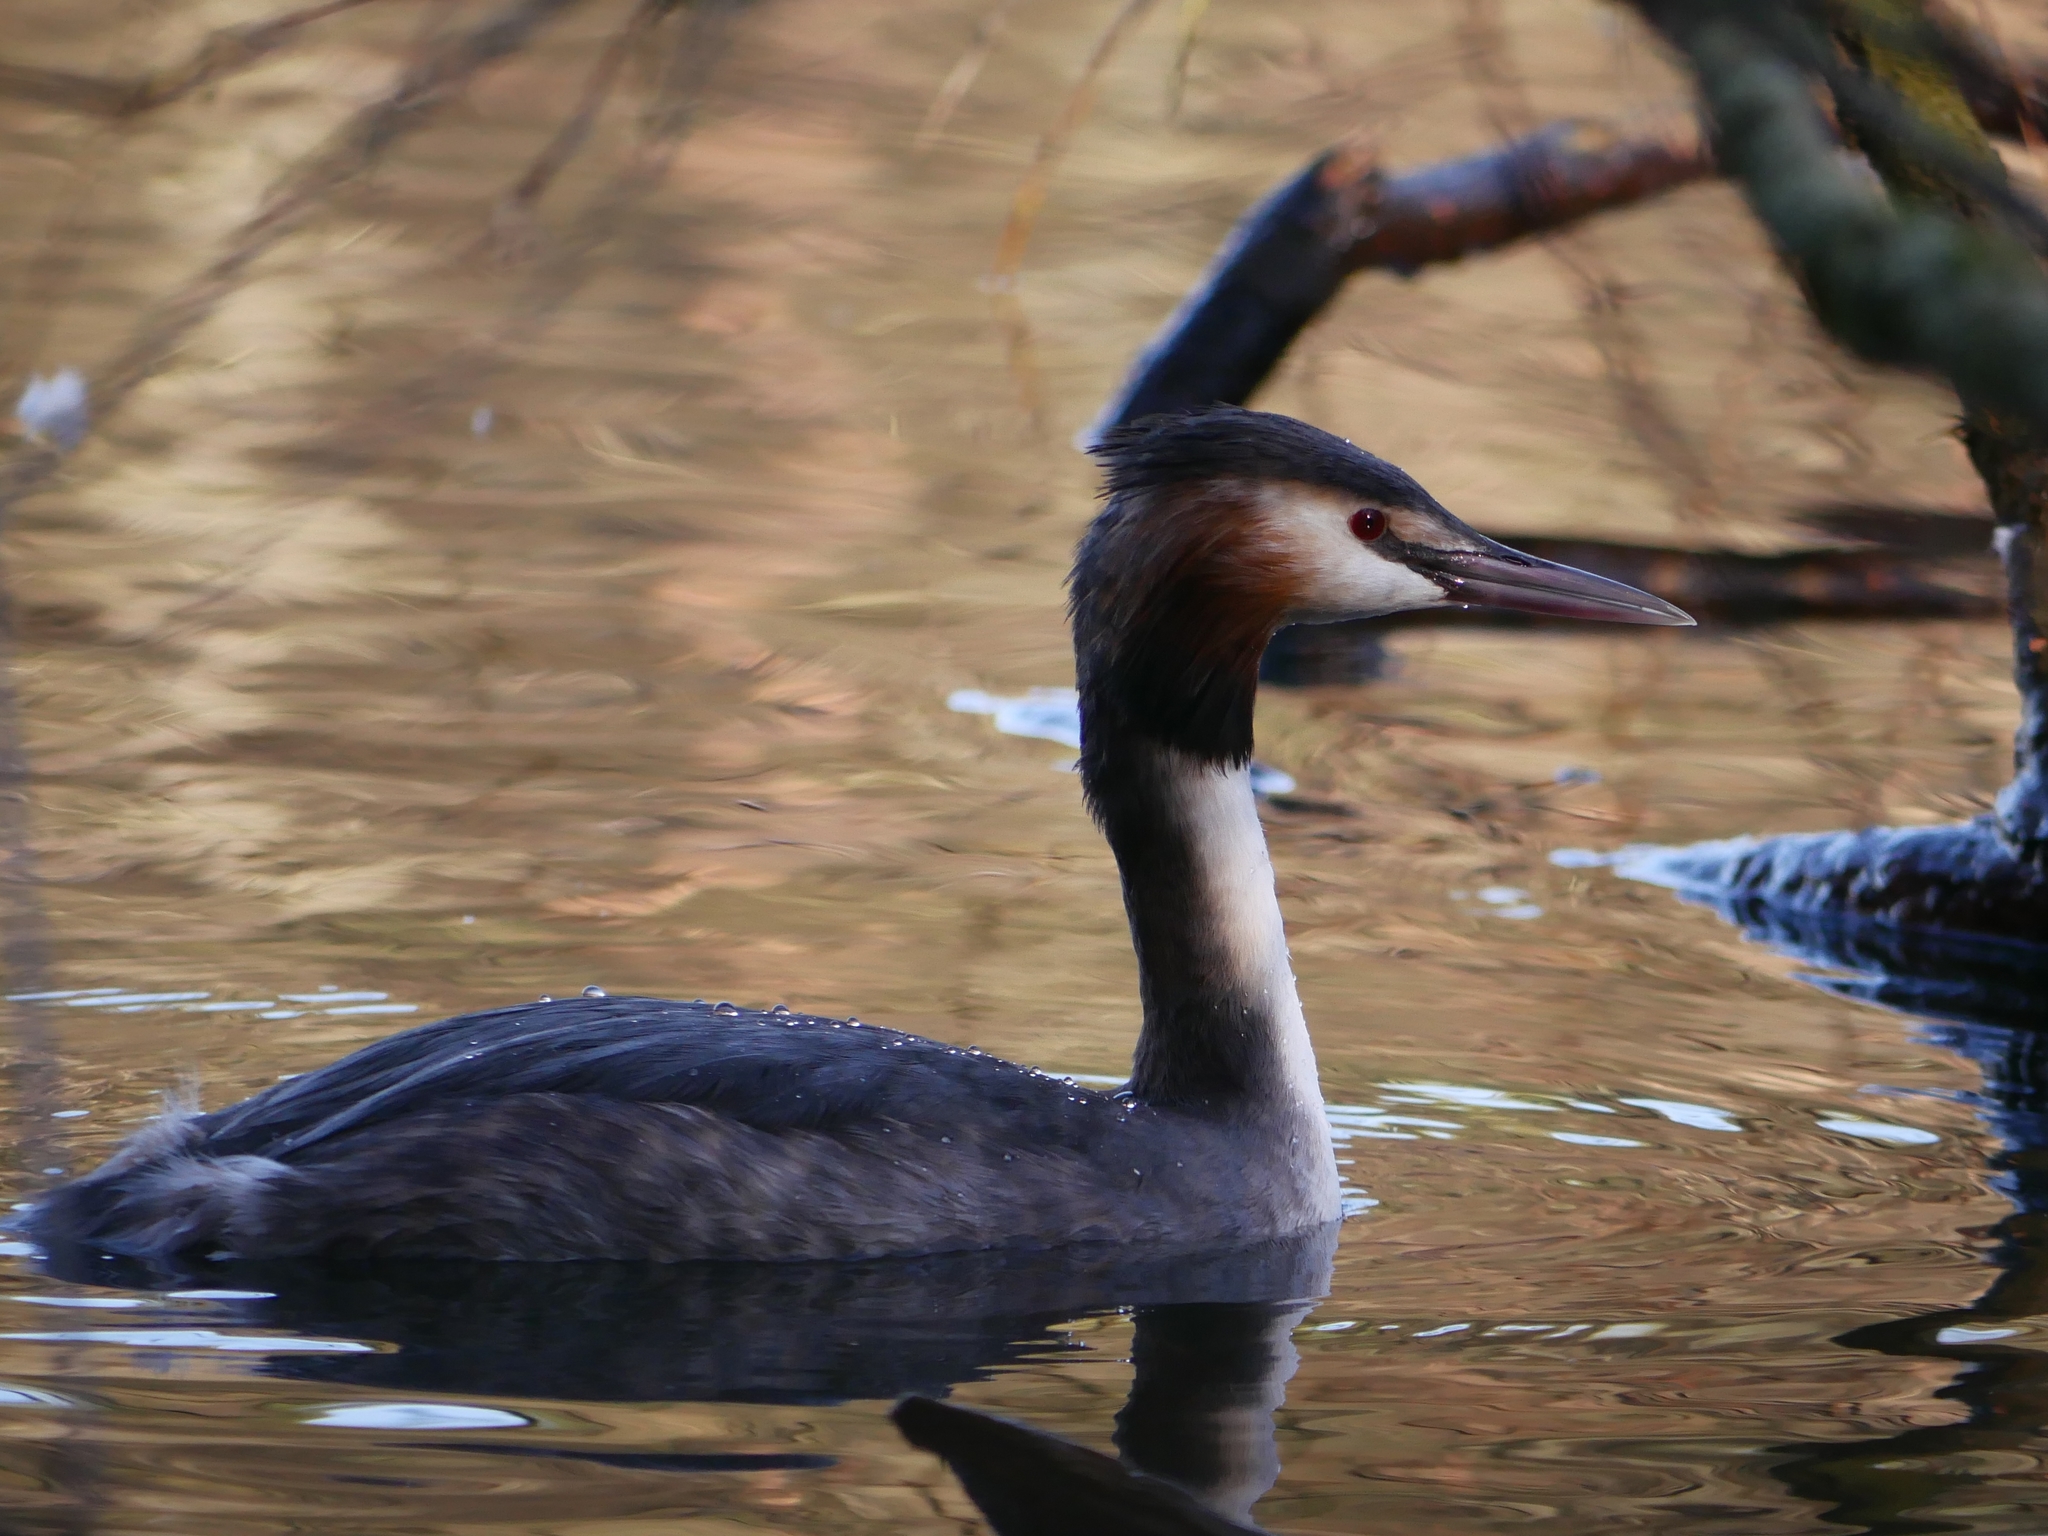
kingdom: Animalia
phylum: Chordata
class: Aves
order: Podicipediformes
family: Podicipedidae
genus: Podiceps
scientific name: Podiceps cristatus
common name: Great crested grebe
